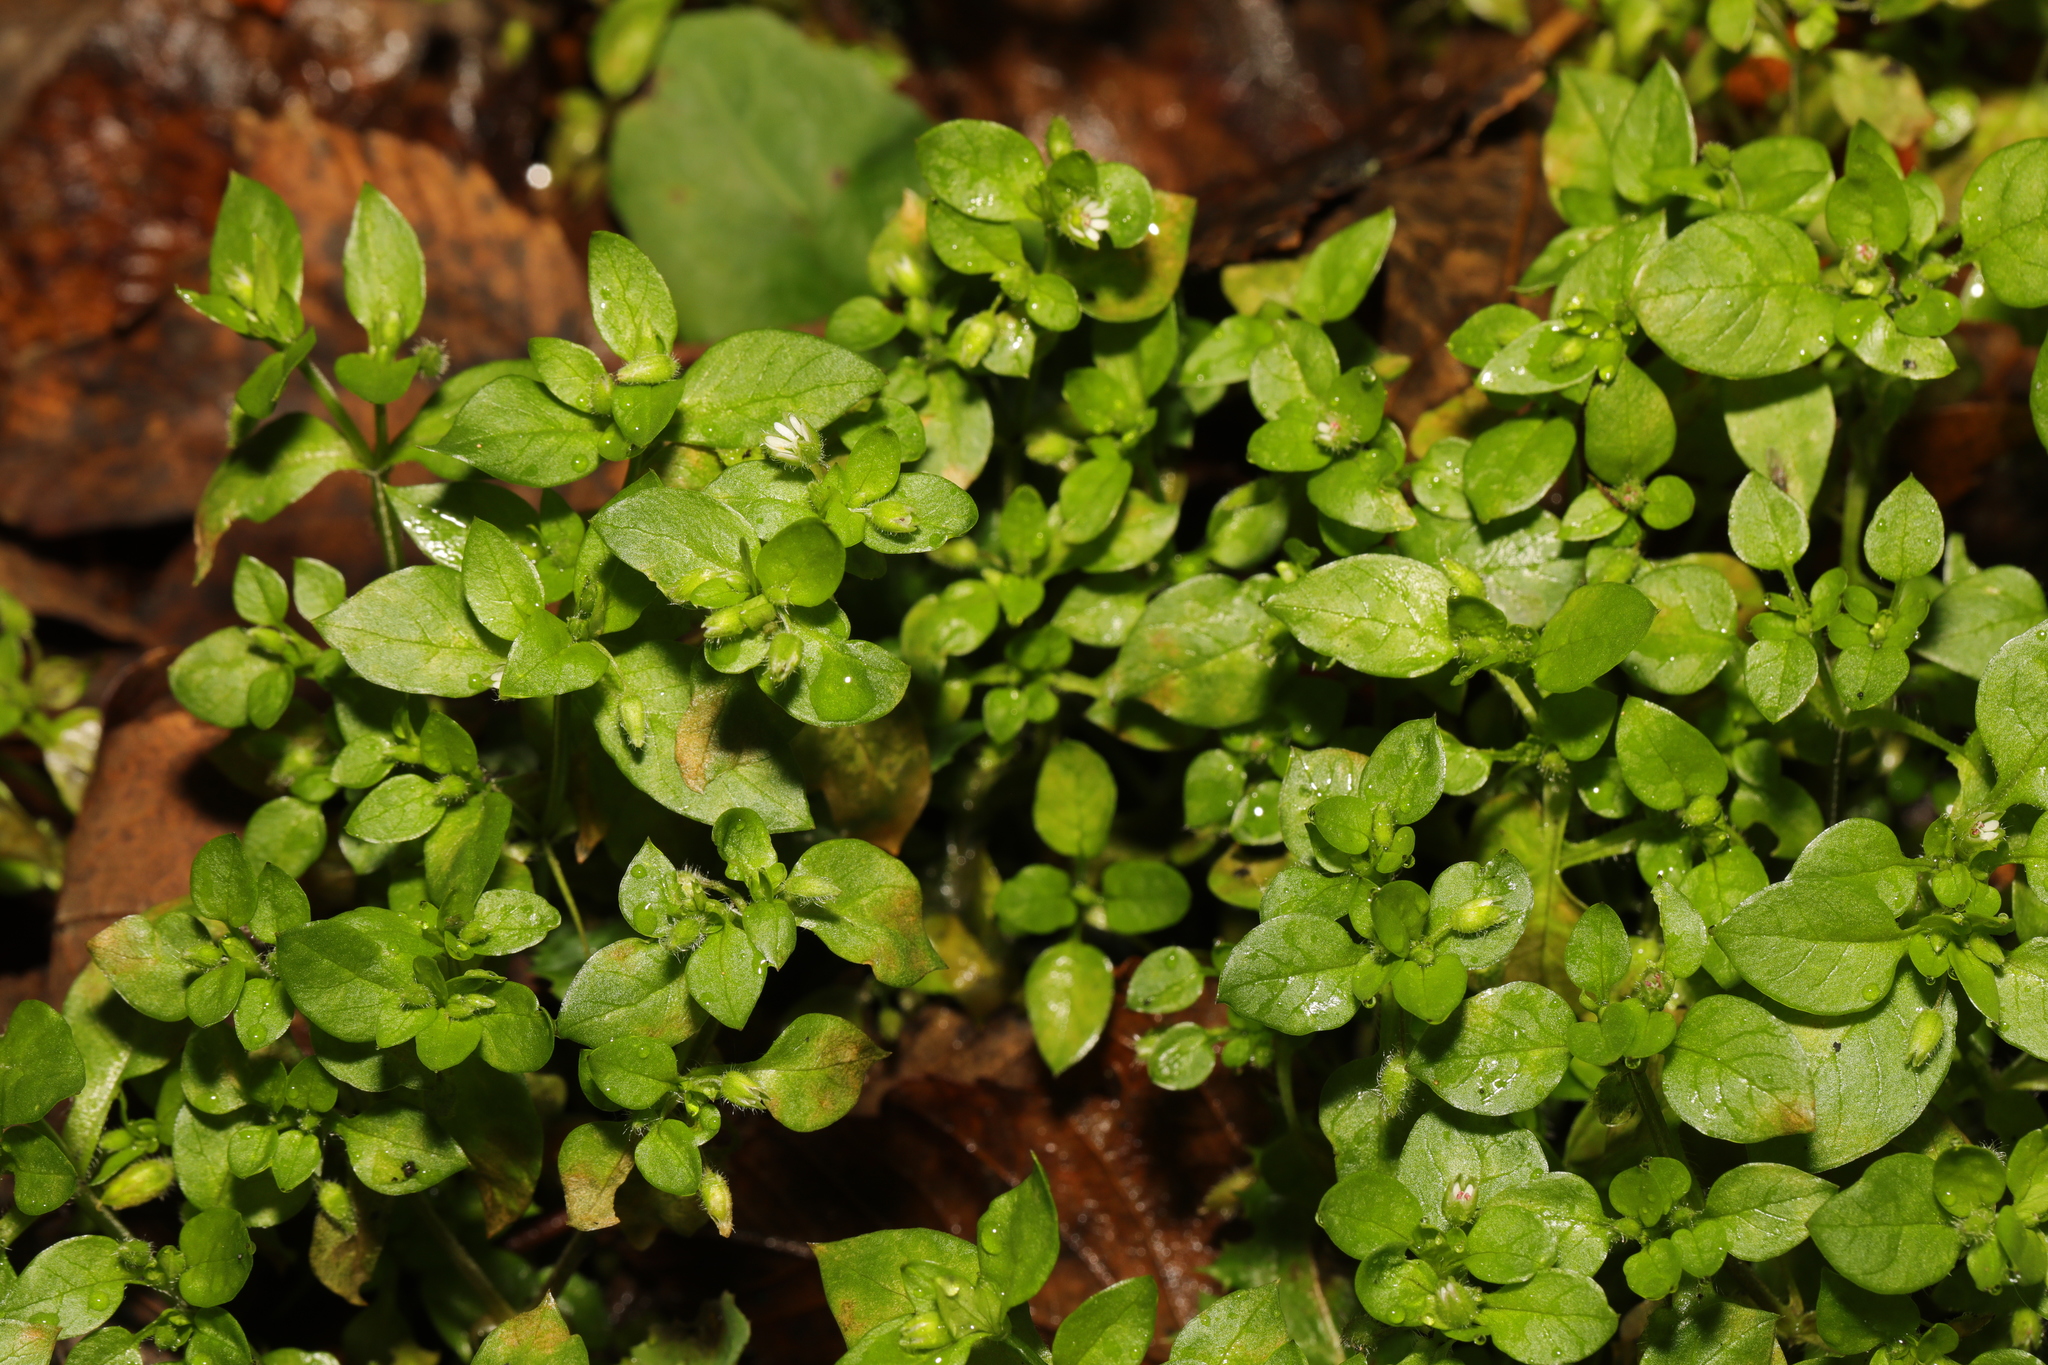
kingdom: Plantae
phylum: Tracheophyta
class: Magnoliopsida
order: Caryophyllales
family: Caryophyllaceae
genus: Stellaria
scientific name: Stellaria media
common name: Common chickweed
